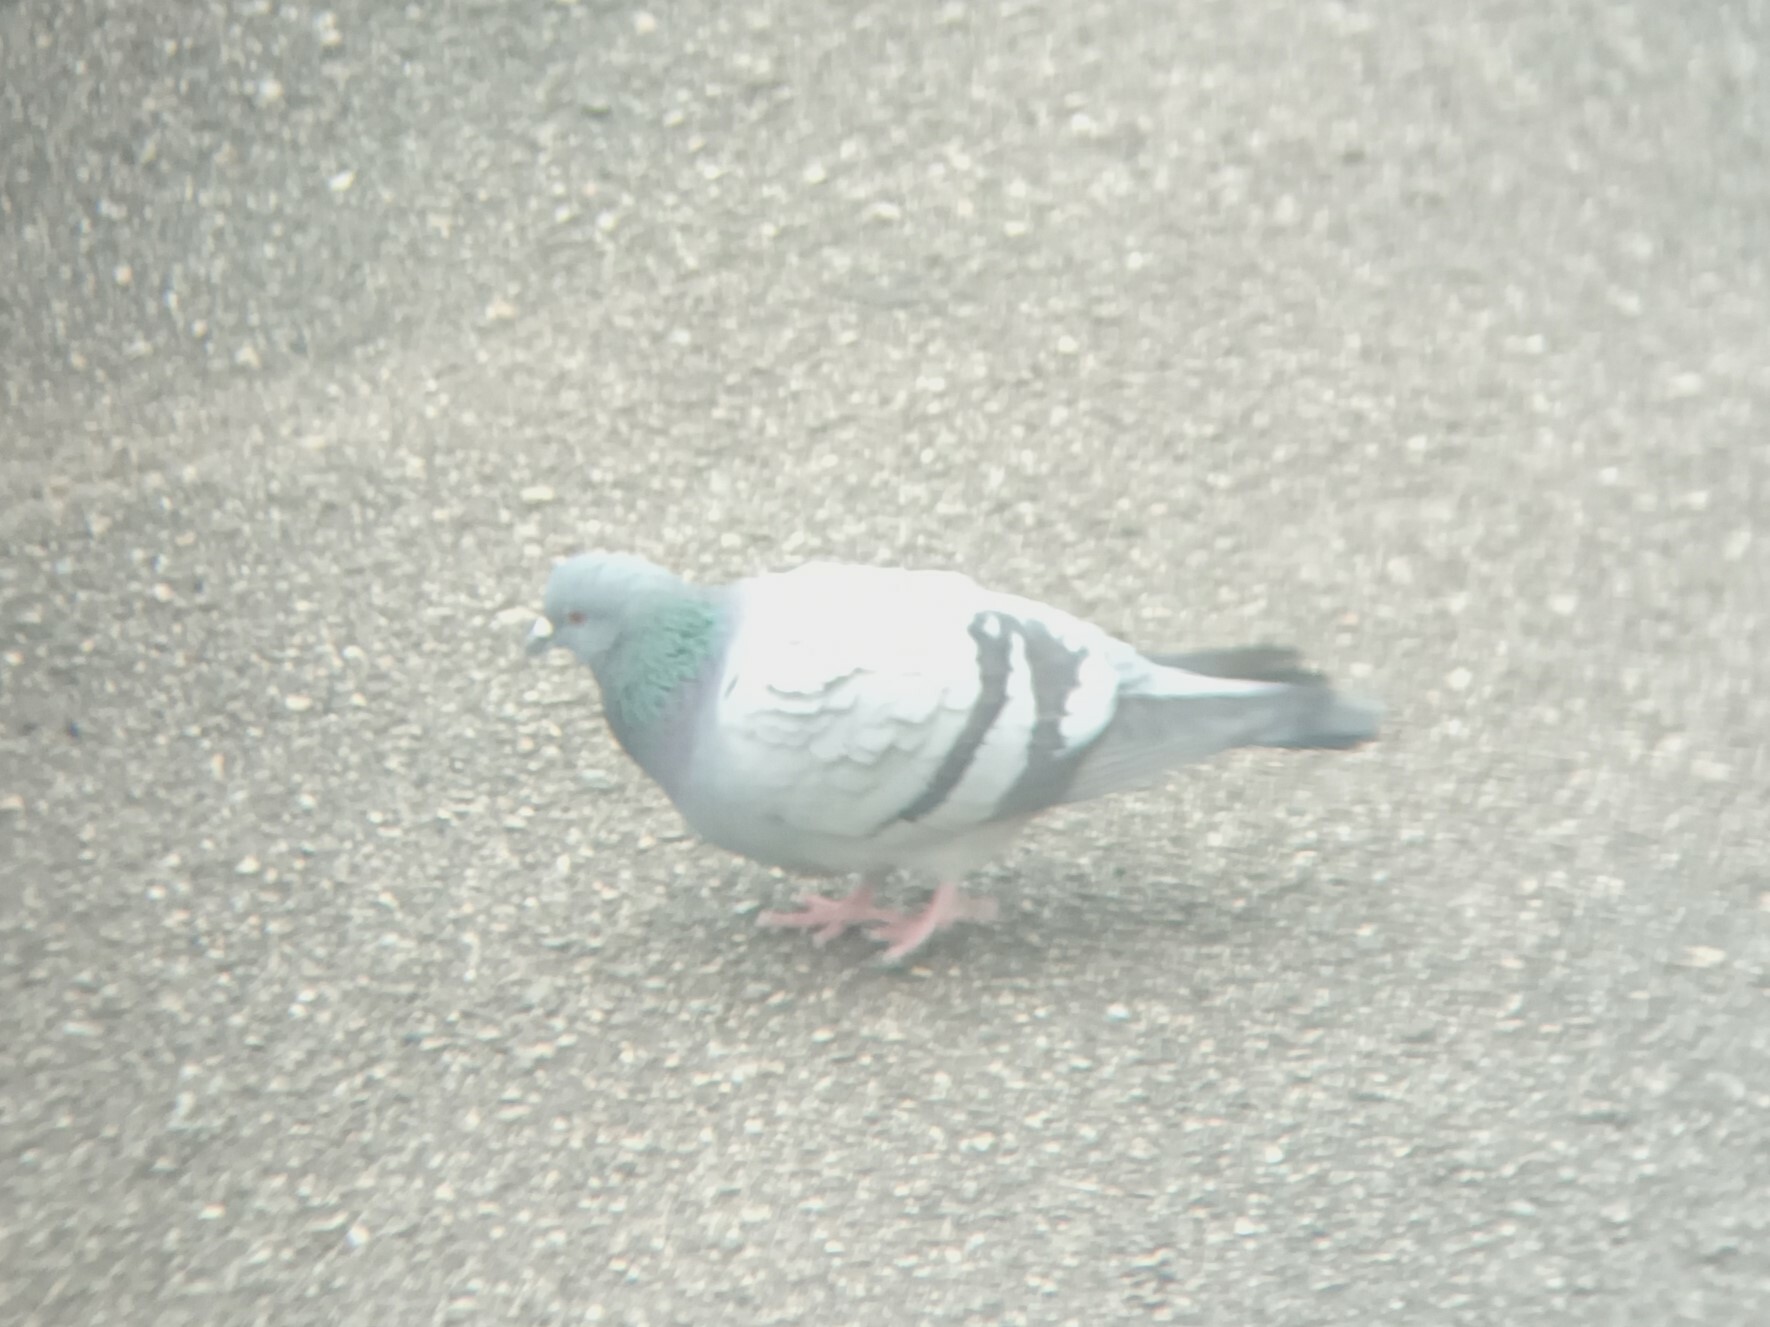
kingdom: Animalia
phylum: Chordata
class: Aves
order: Columbiformes
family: Columbidae
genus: Columba
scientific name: Columba livia
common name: Rock pigeon
